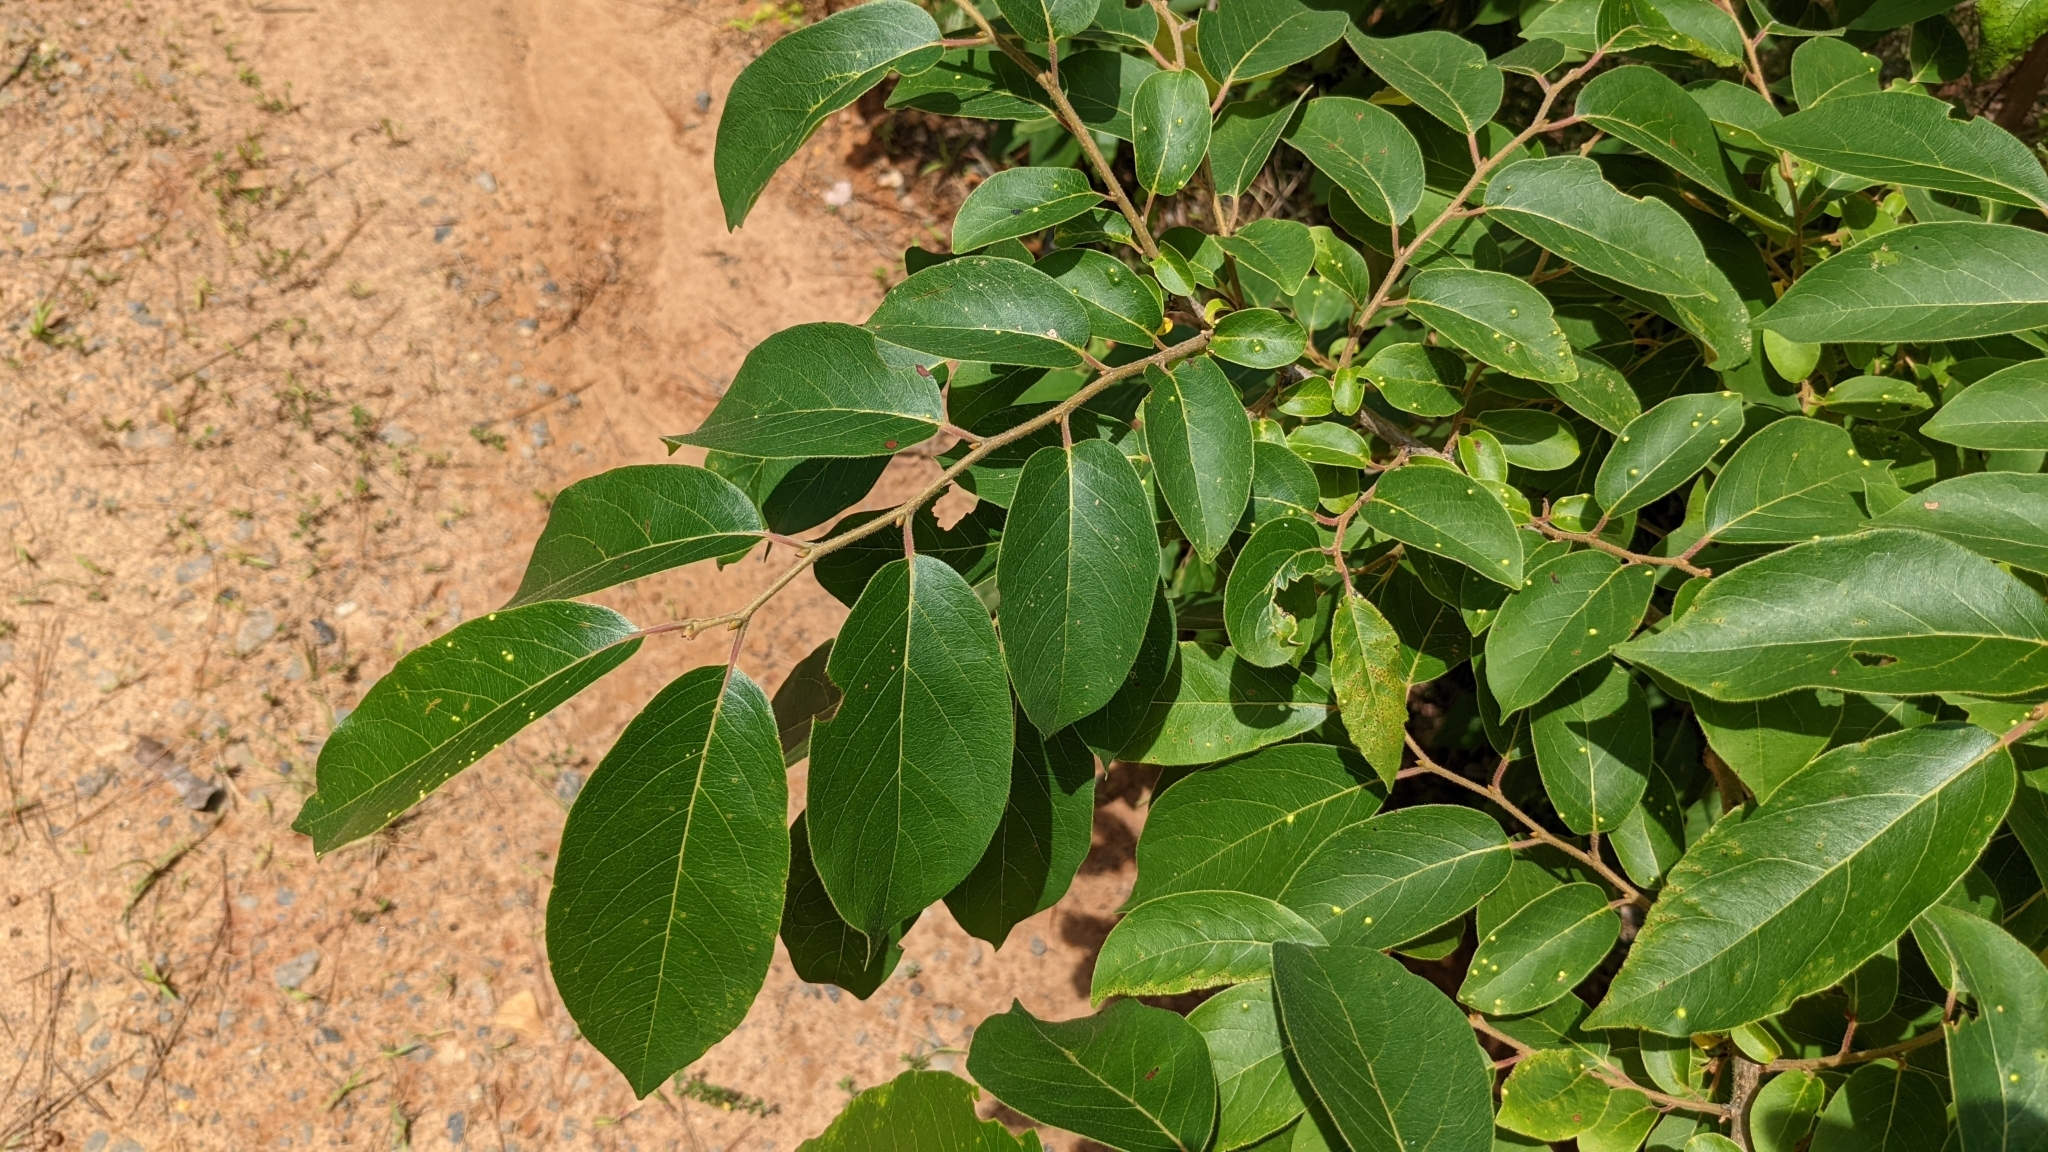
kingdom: Plantae
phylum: Tracheophyta
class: Magnoliopsida
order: Ericales
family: Ebenaceae
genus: Diospyros
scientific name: Diospyros virginiana
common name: Persimmon
